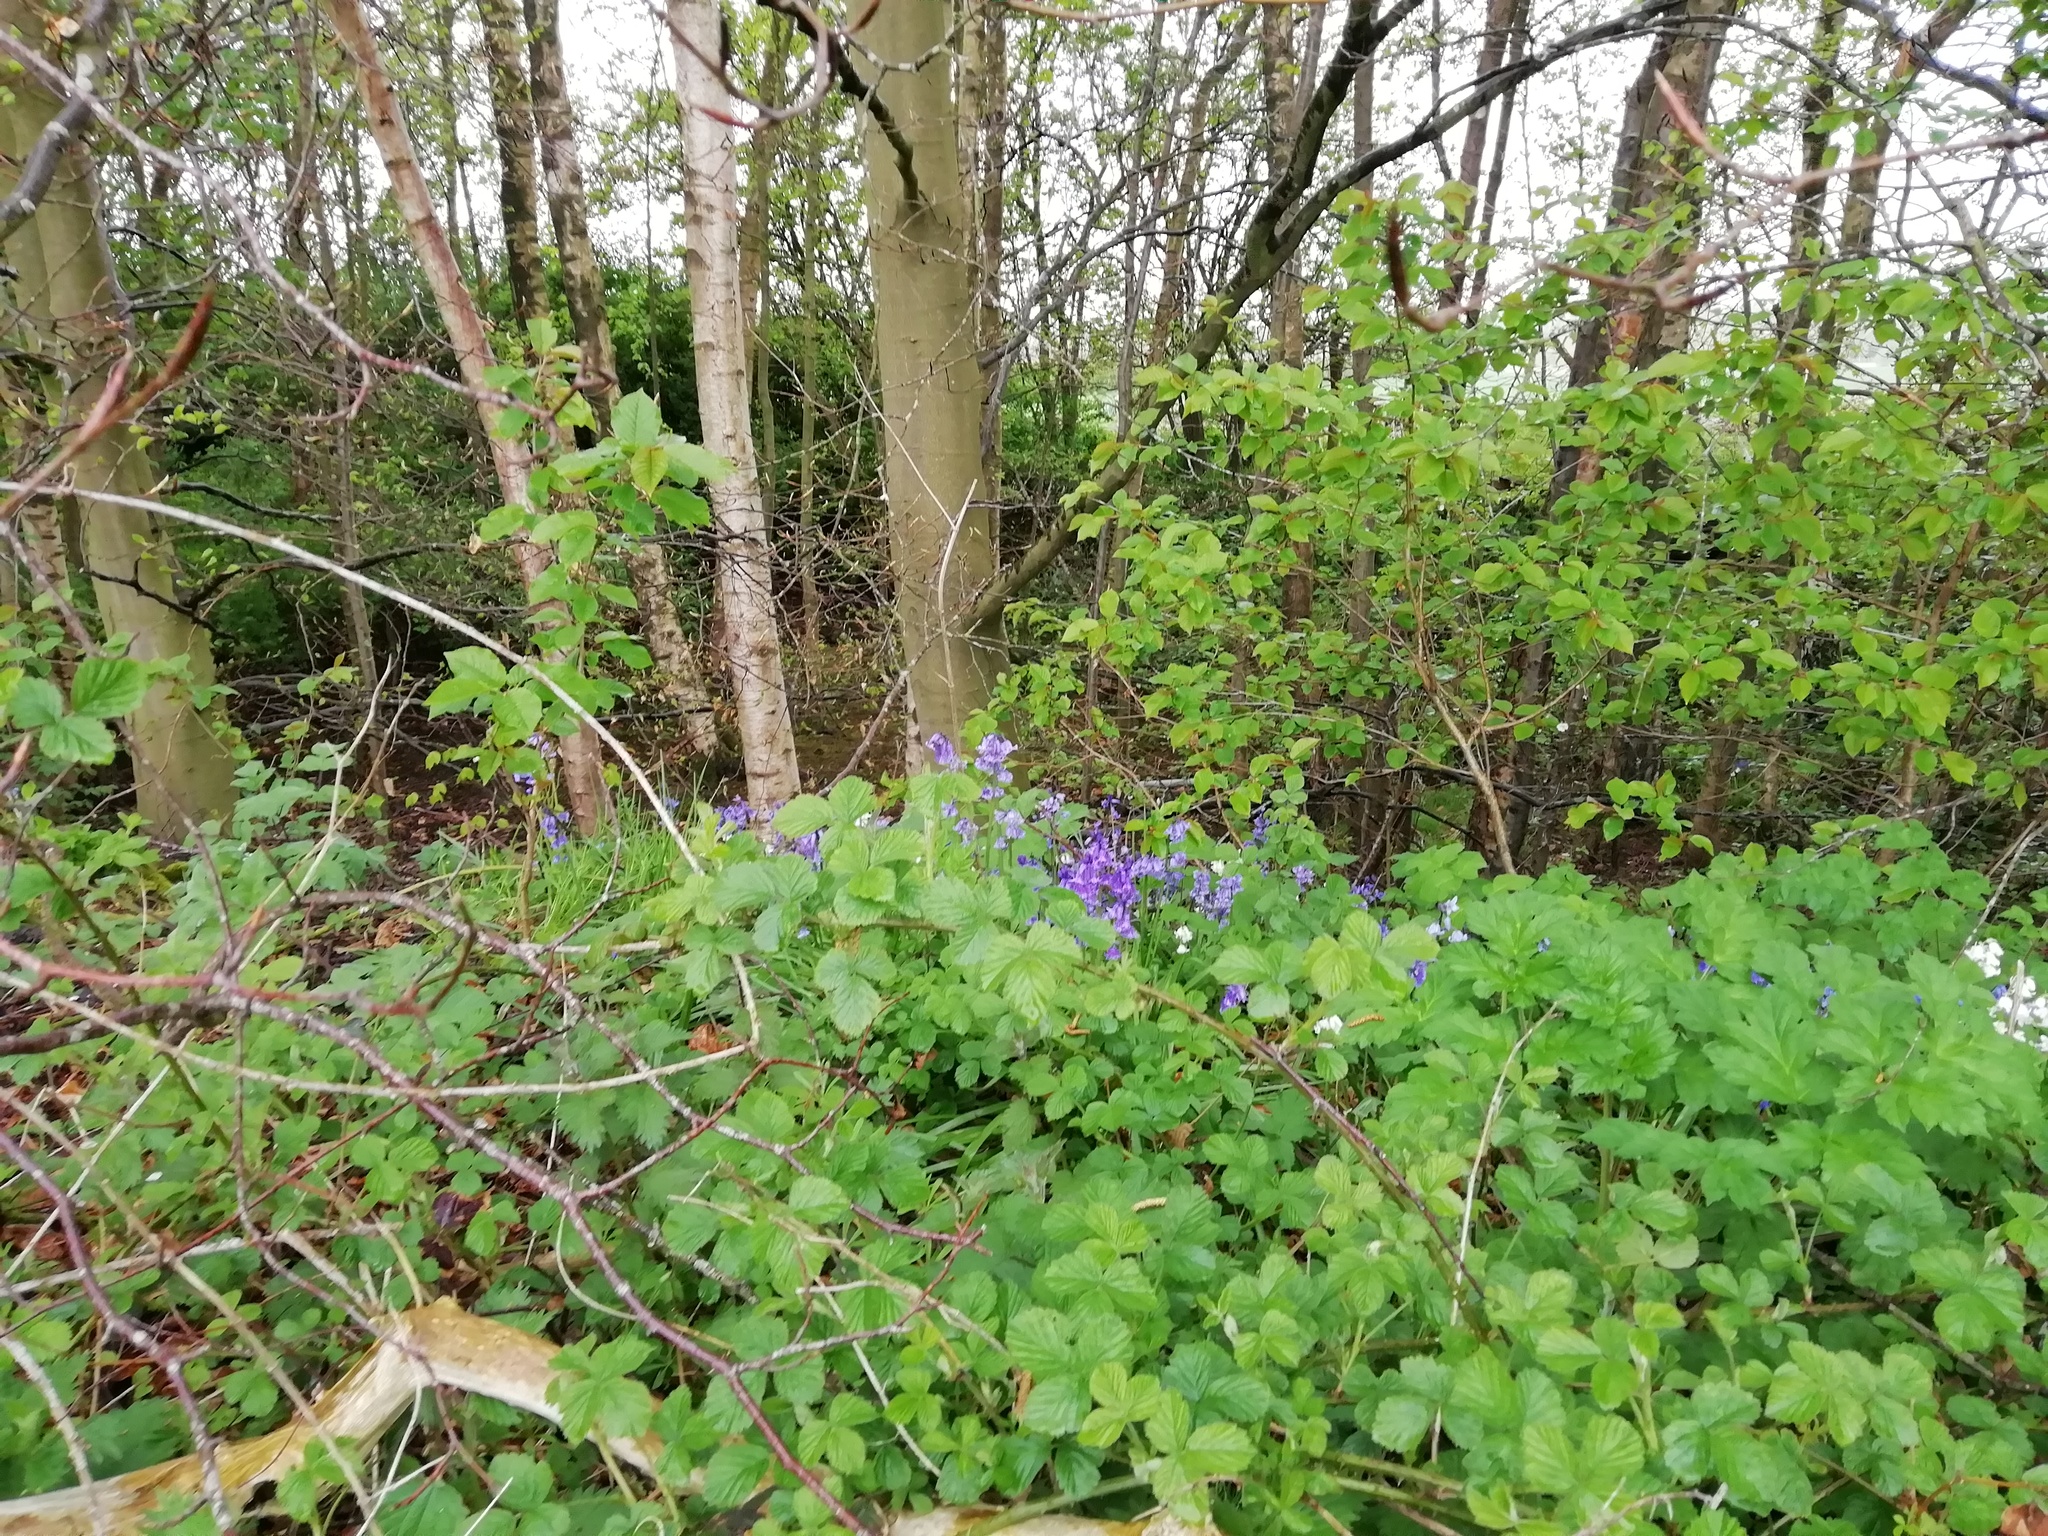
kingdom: Plantae
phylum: Tracheophyta
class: Liliopsida
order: Asparagales
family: Asparagaceae
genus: Hyacinthoides
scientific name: Hyacinthoides massartiana
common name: Hyacinthoides
